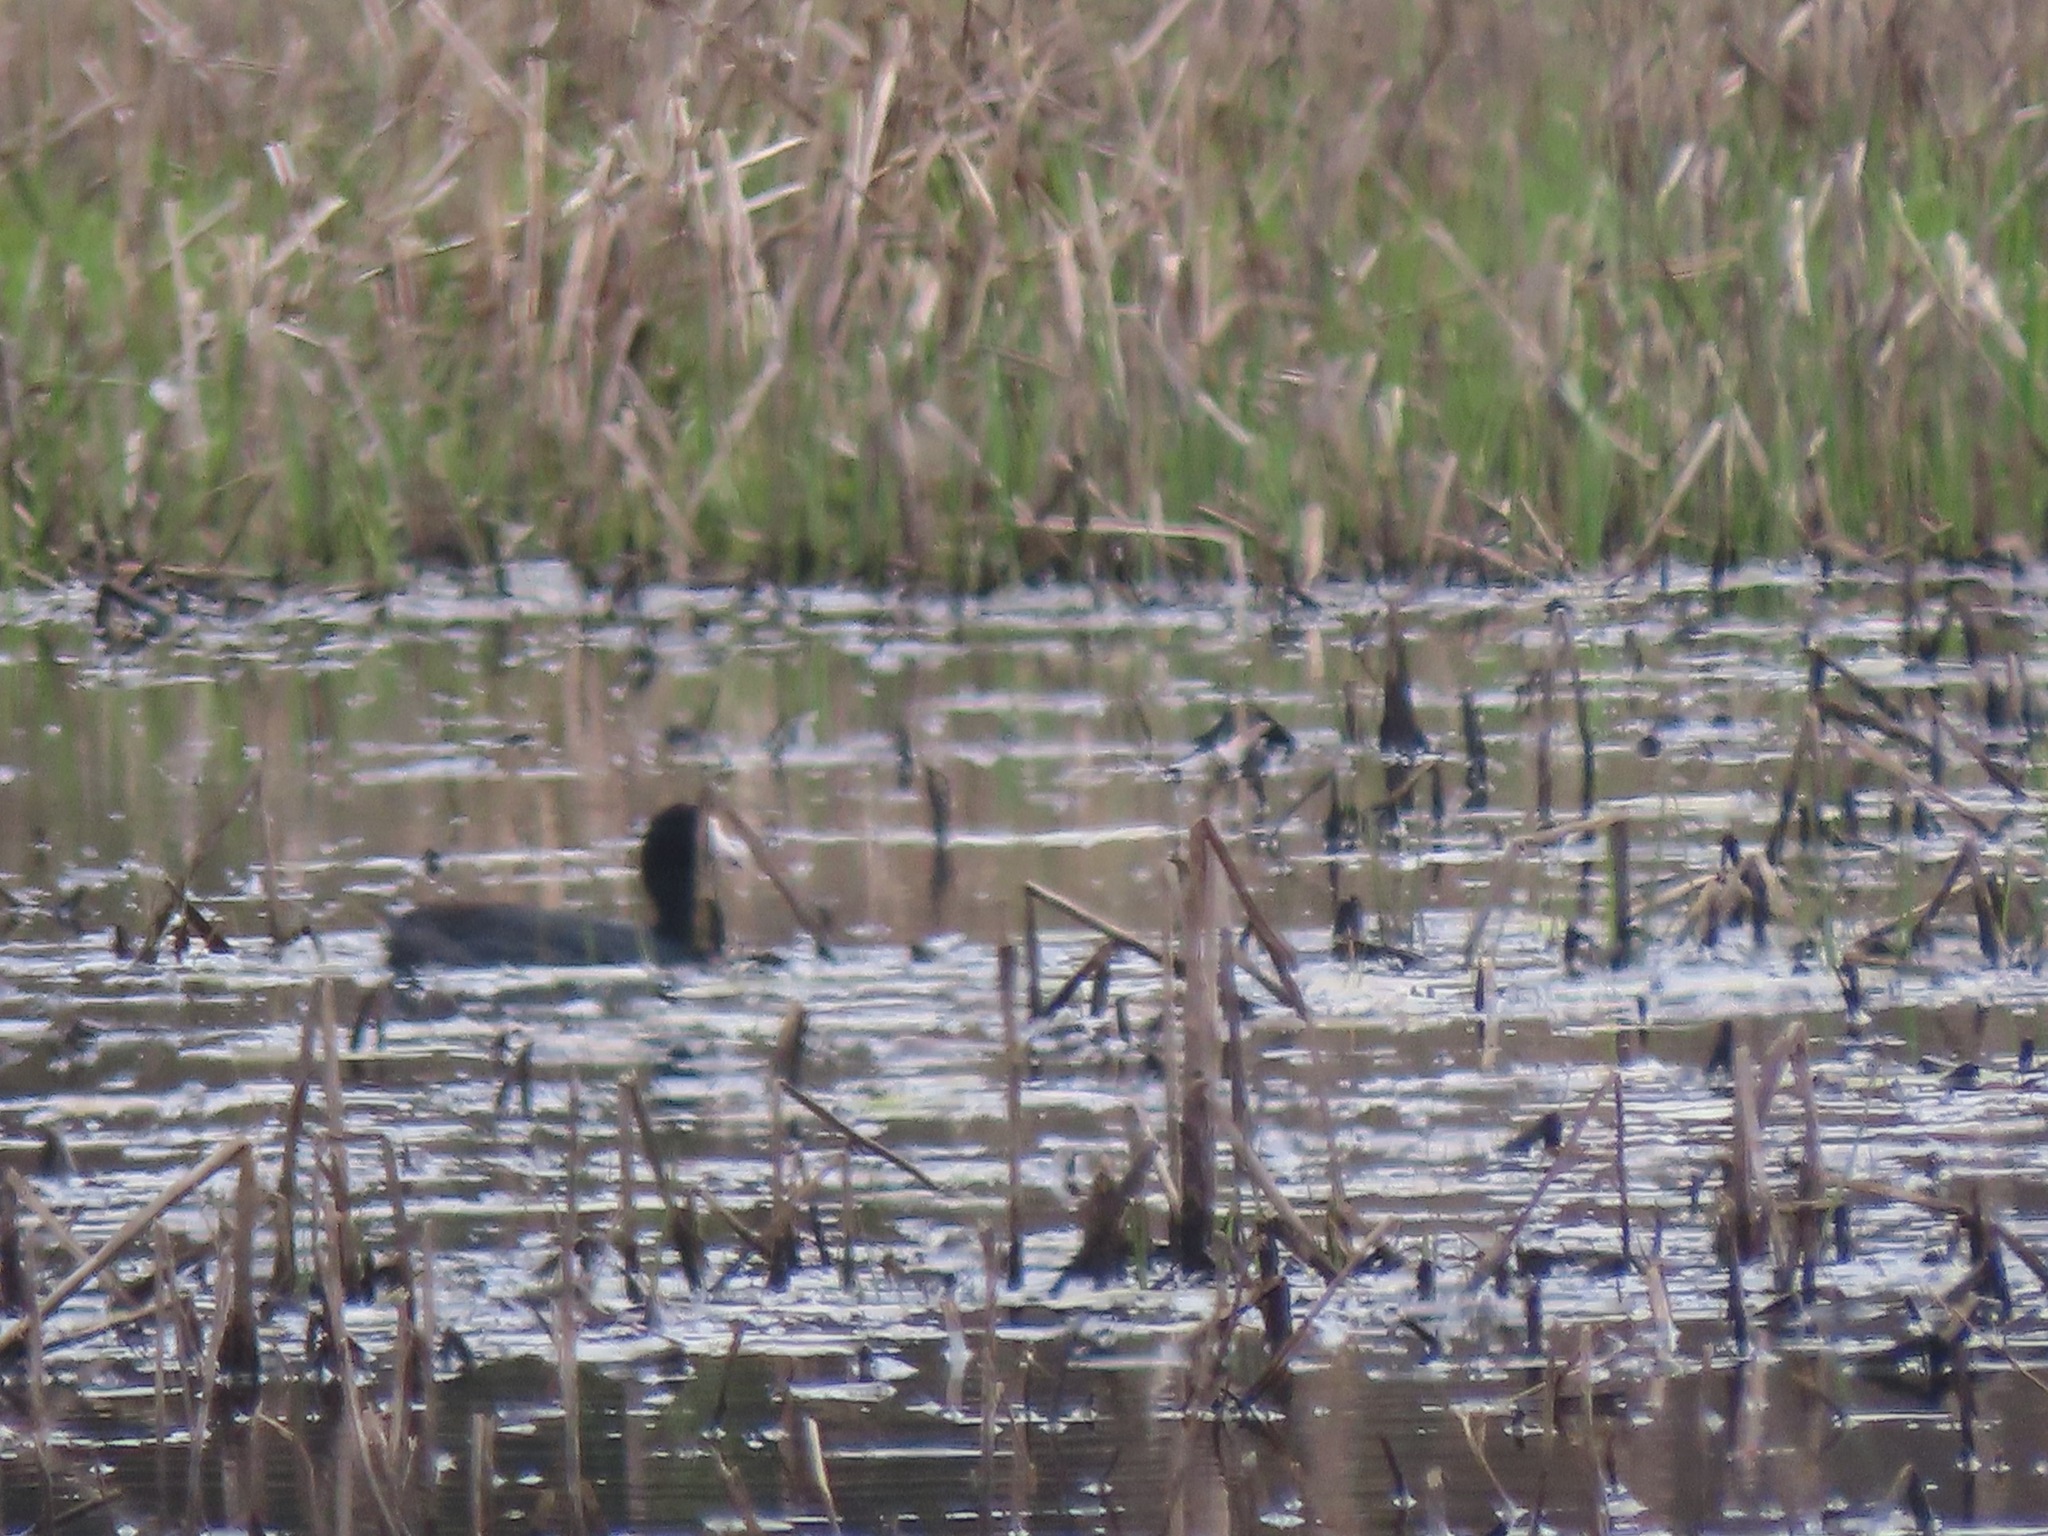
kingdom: Animalia
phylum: Chordata
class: Aves
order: Gruiformes
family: Rallidae
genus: Fulica
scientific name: Fulica americana
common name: American coot
